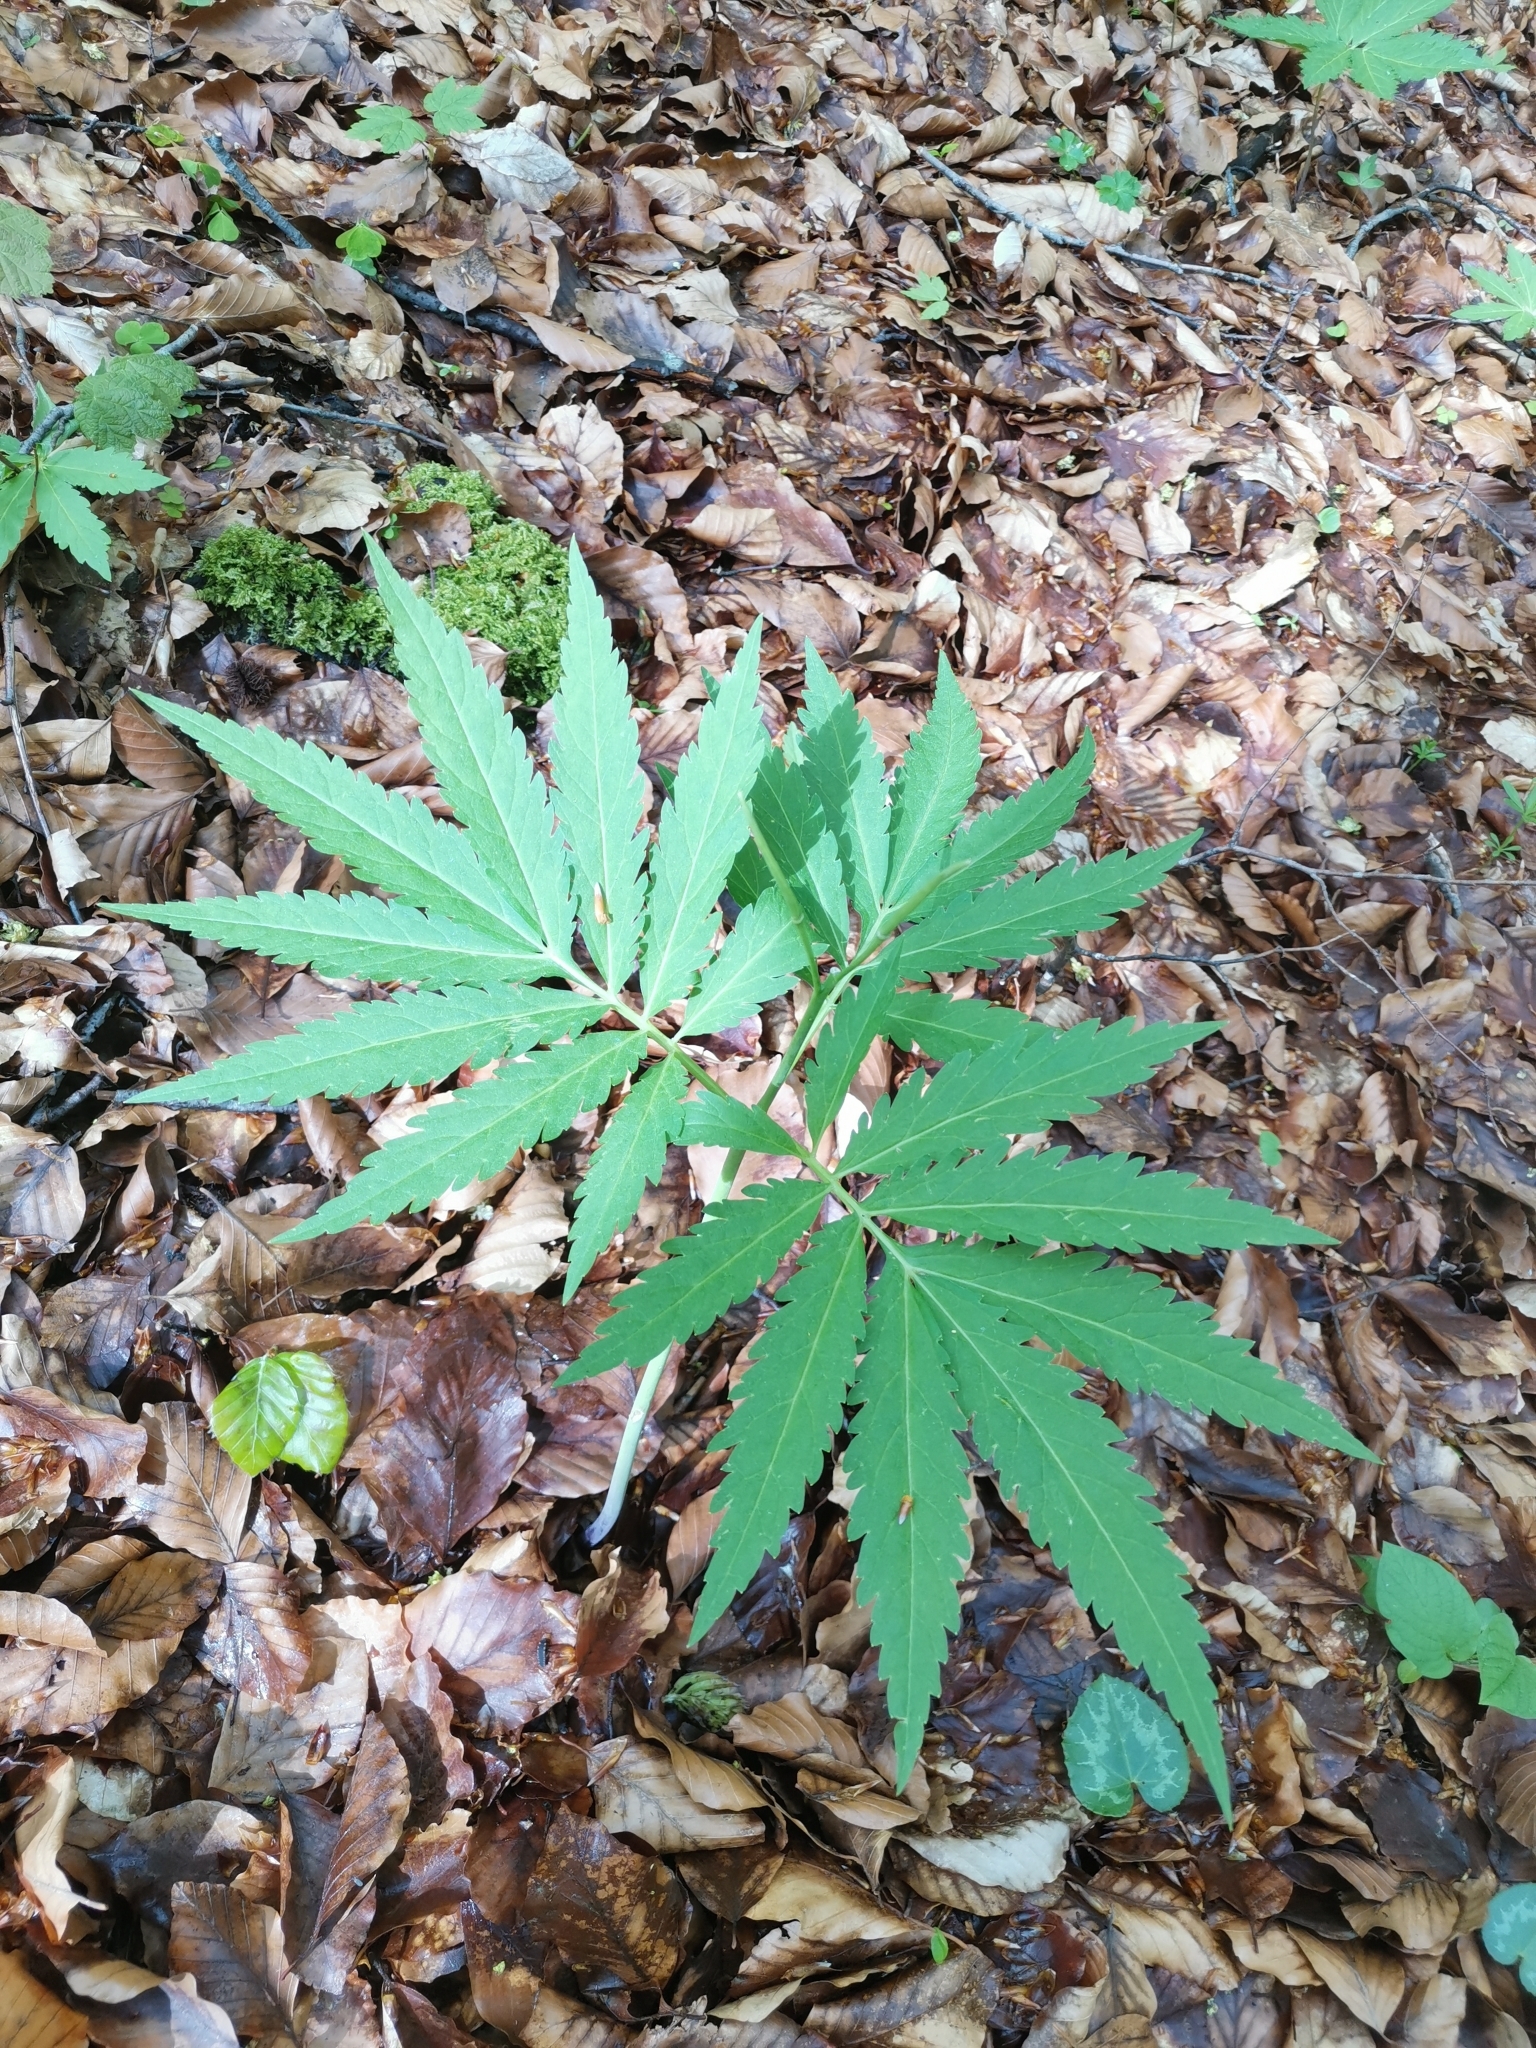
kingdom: Plantae
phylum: Tracheophyta
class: Magnoliopsida
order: Brassicales
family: Brassicaceae
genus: Cardamine
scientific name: Cardamine kitaibelii
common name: Kitaibel's bitter-cress
